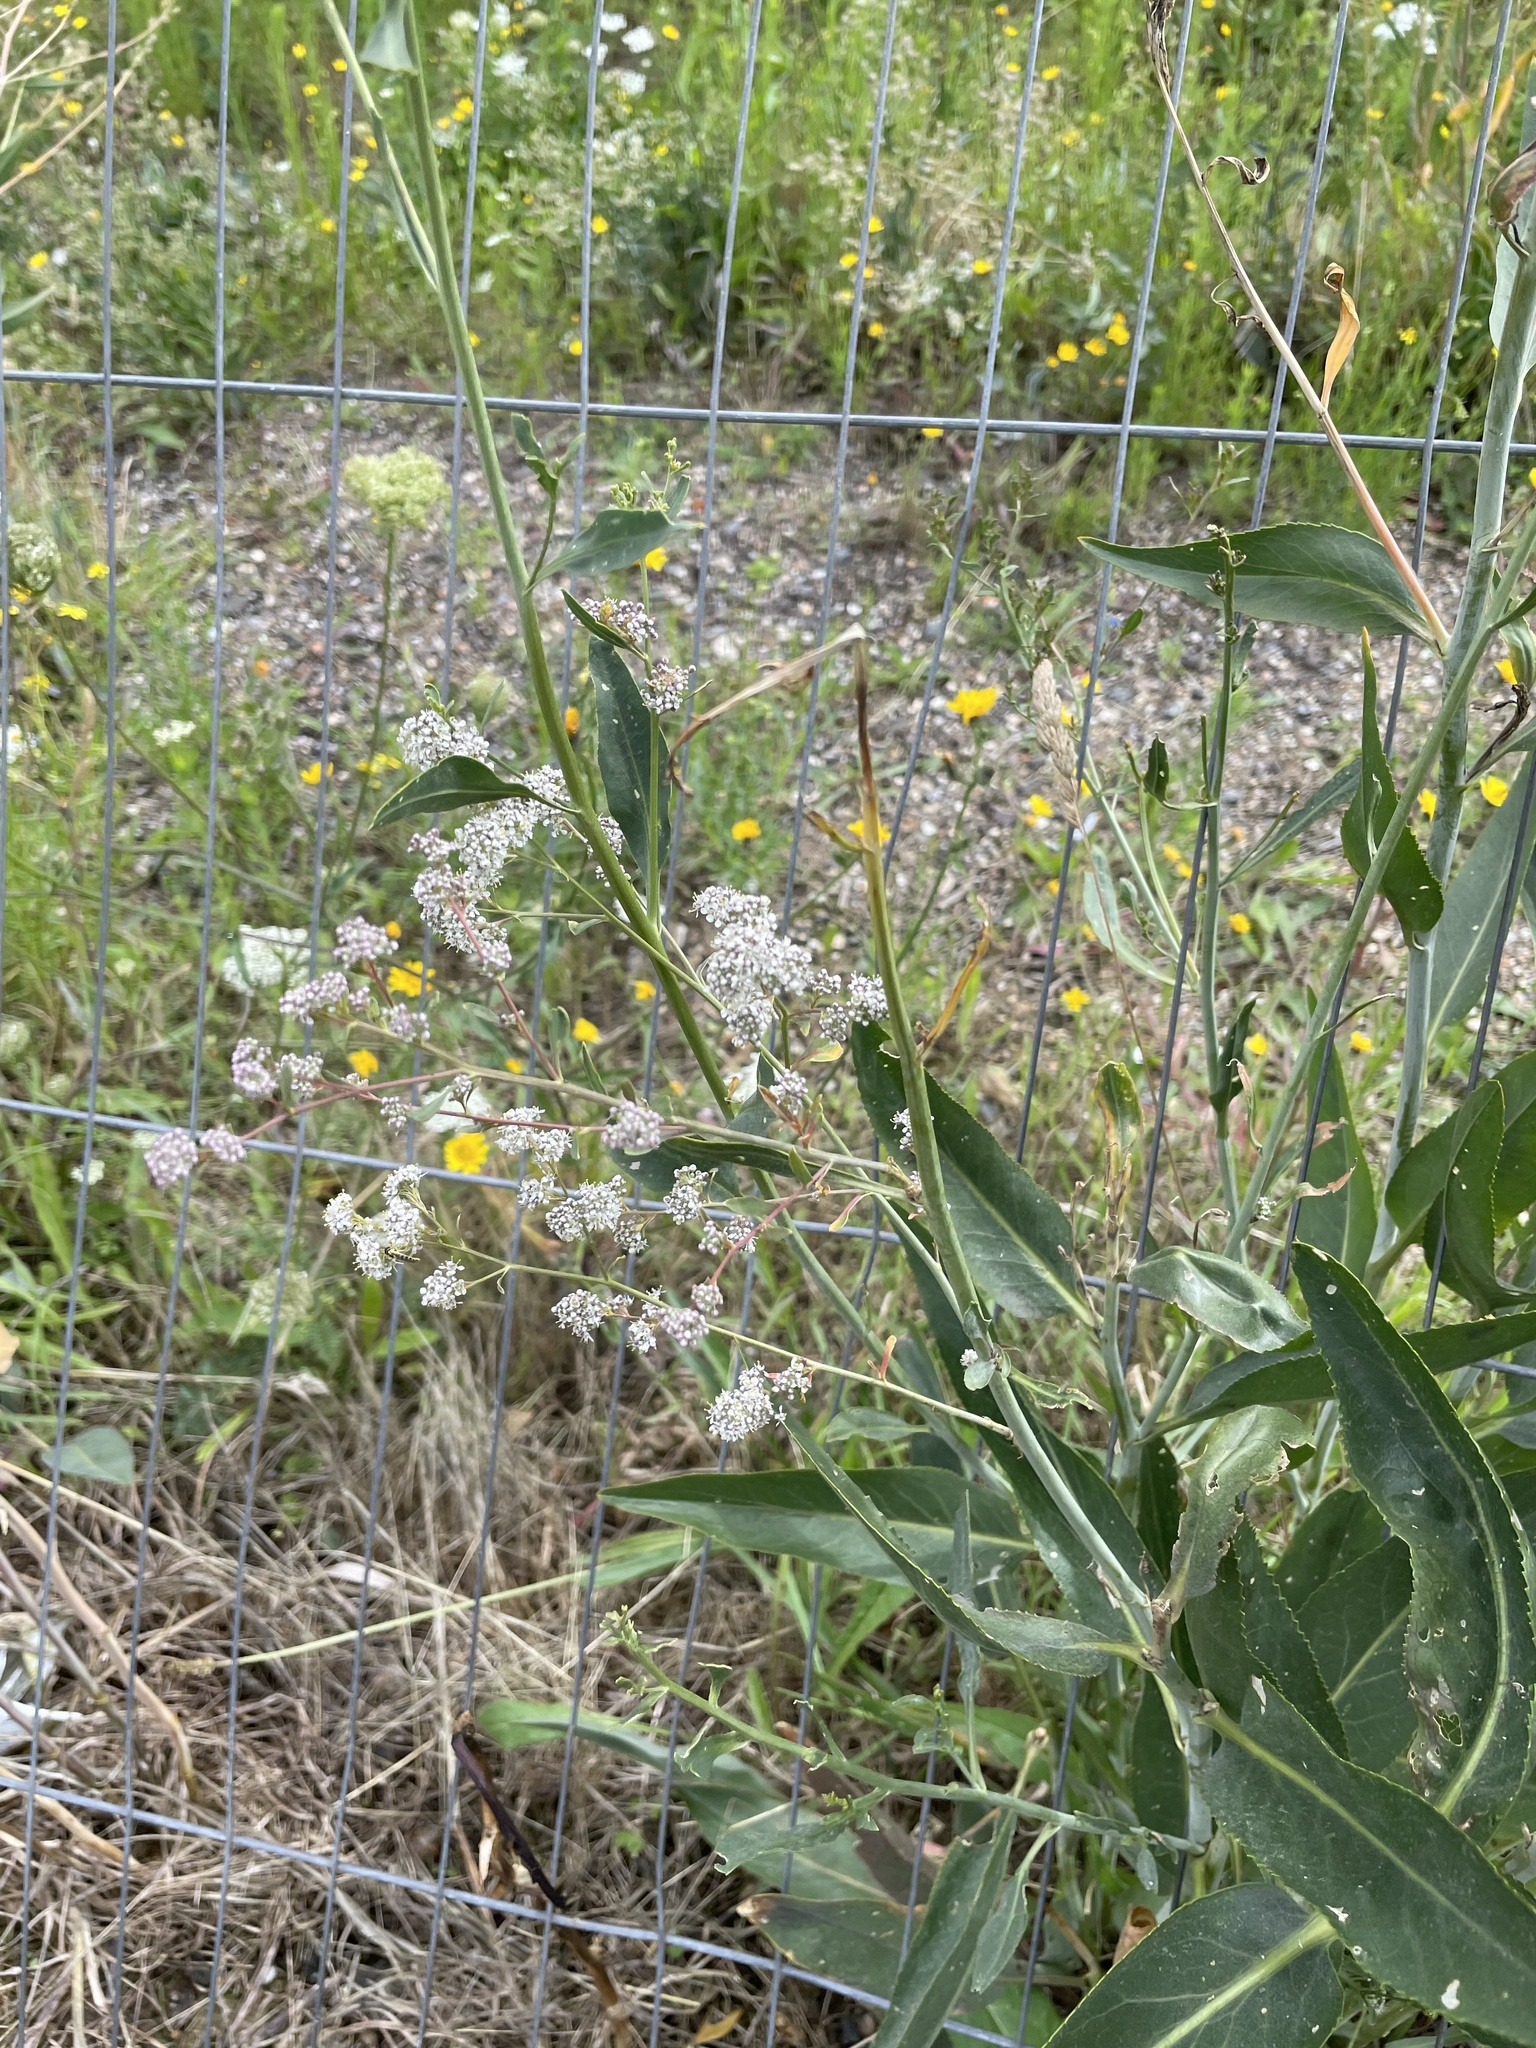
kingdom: Plantae
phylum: Tracheophyta
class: Magnoliopsida
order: Brassicales
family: Brassicaceae
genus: Lepidium
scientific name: Lepidium latifolium
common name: Dittander
